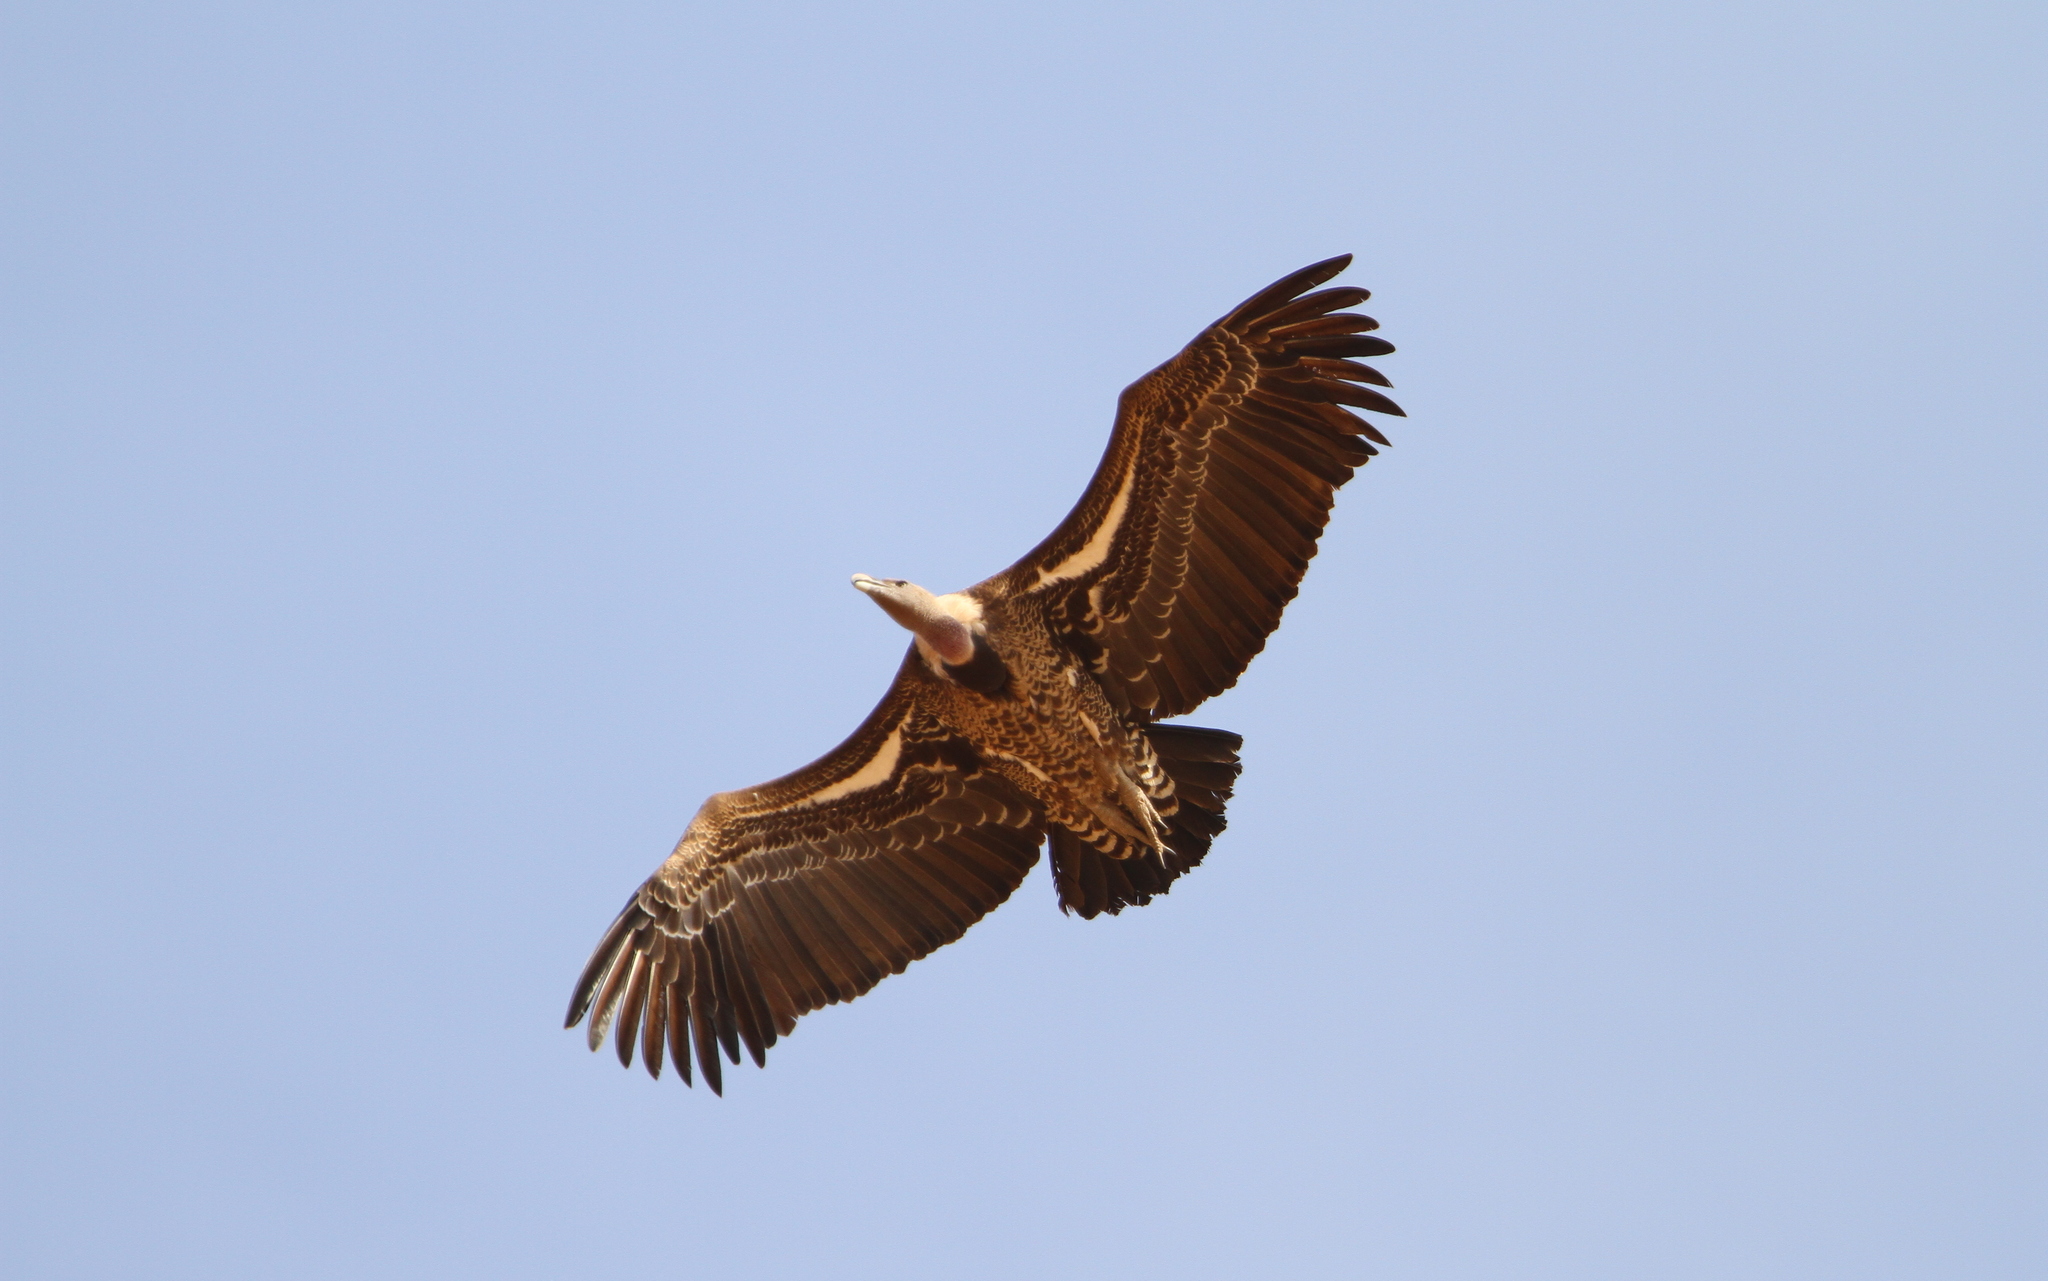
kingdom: Animalia
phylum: Chordata
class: Aves
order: Accipitriformes
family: Accipitridae
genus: Gyps
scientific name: Gyps rueppellii
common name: Rüppell's vulture
